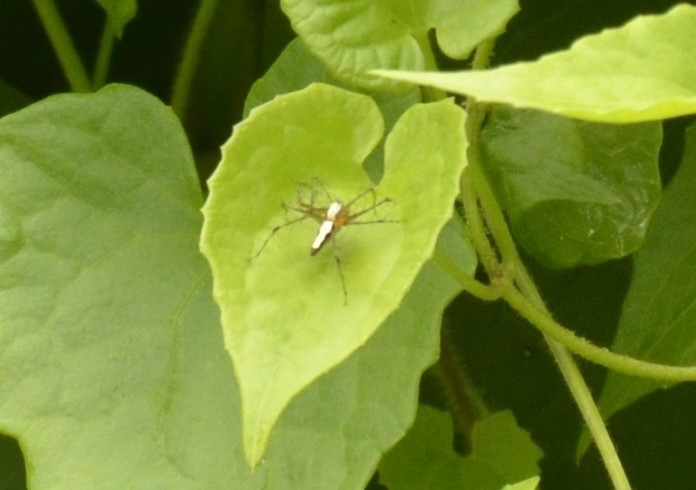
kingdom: Animalia
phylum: Arthropoda
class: Arachnida
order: Araneae
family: Oxyopidae
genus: Oxyopes
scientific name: Oxyopes shweta
